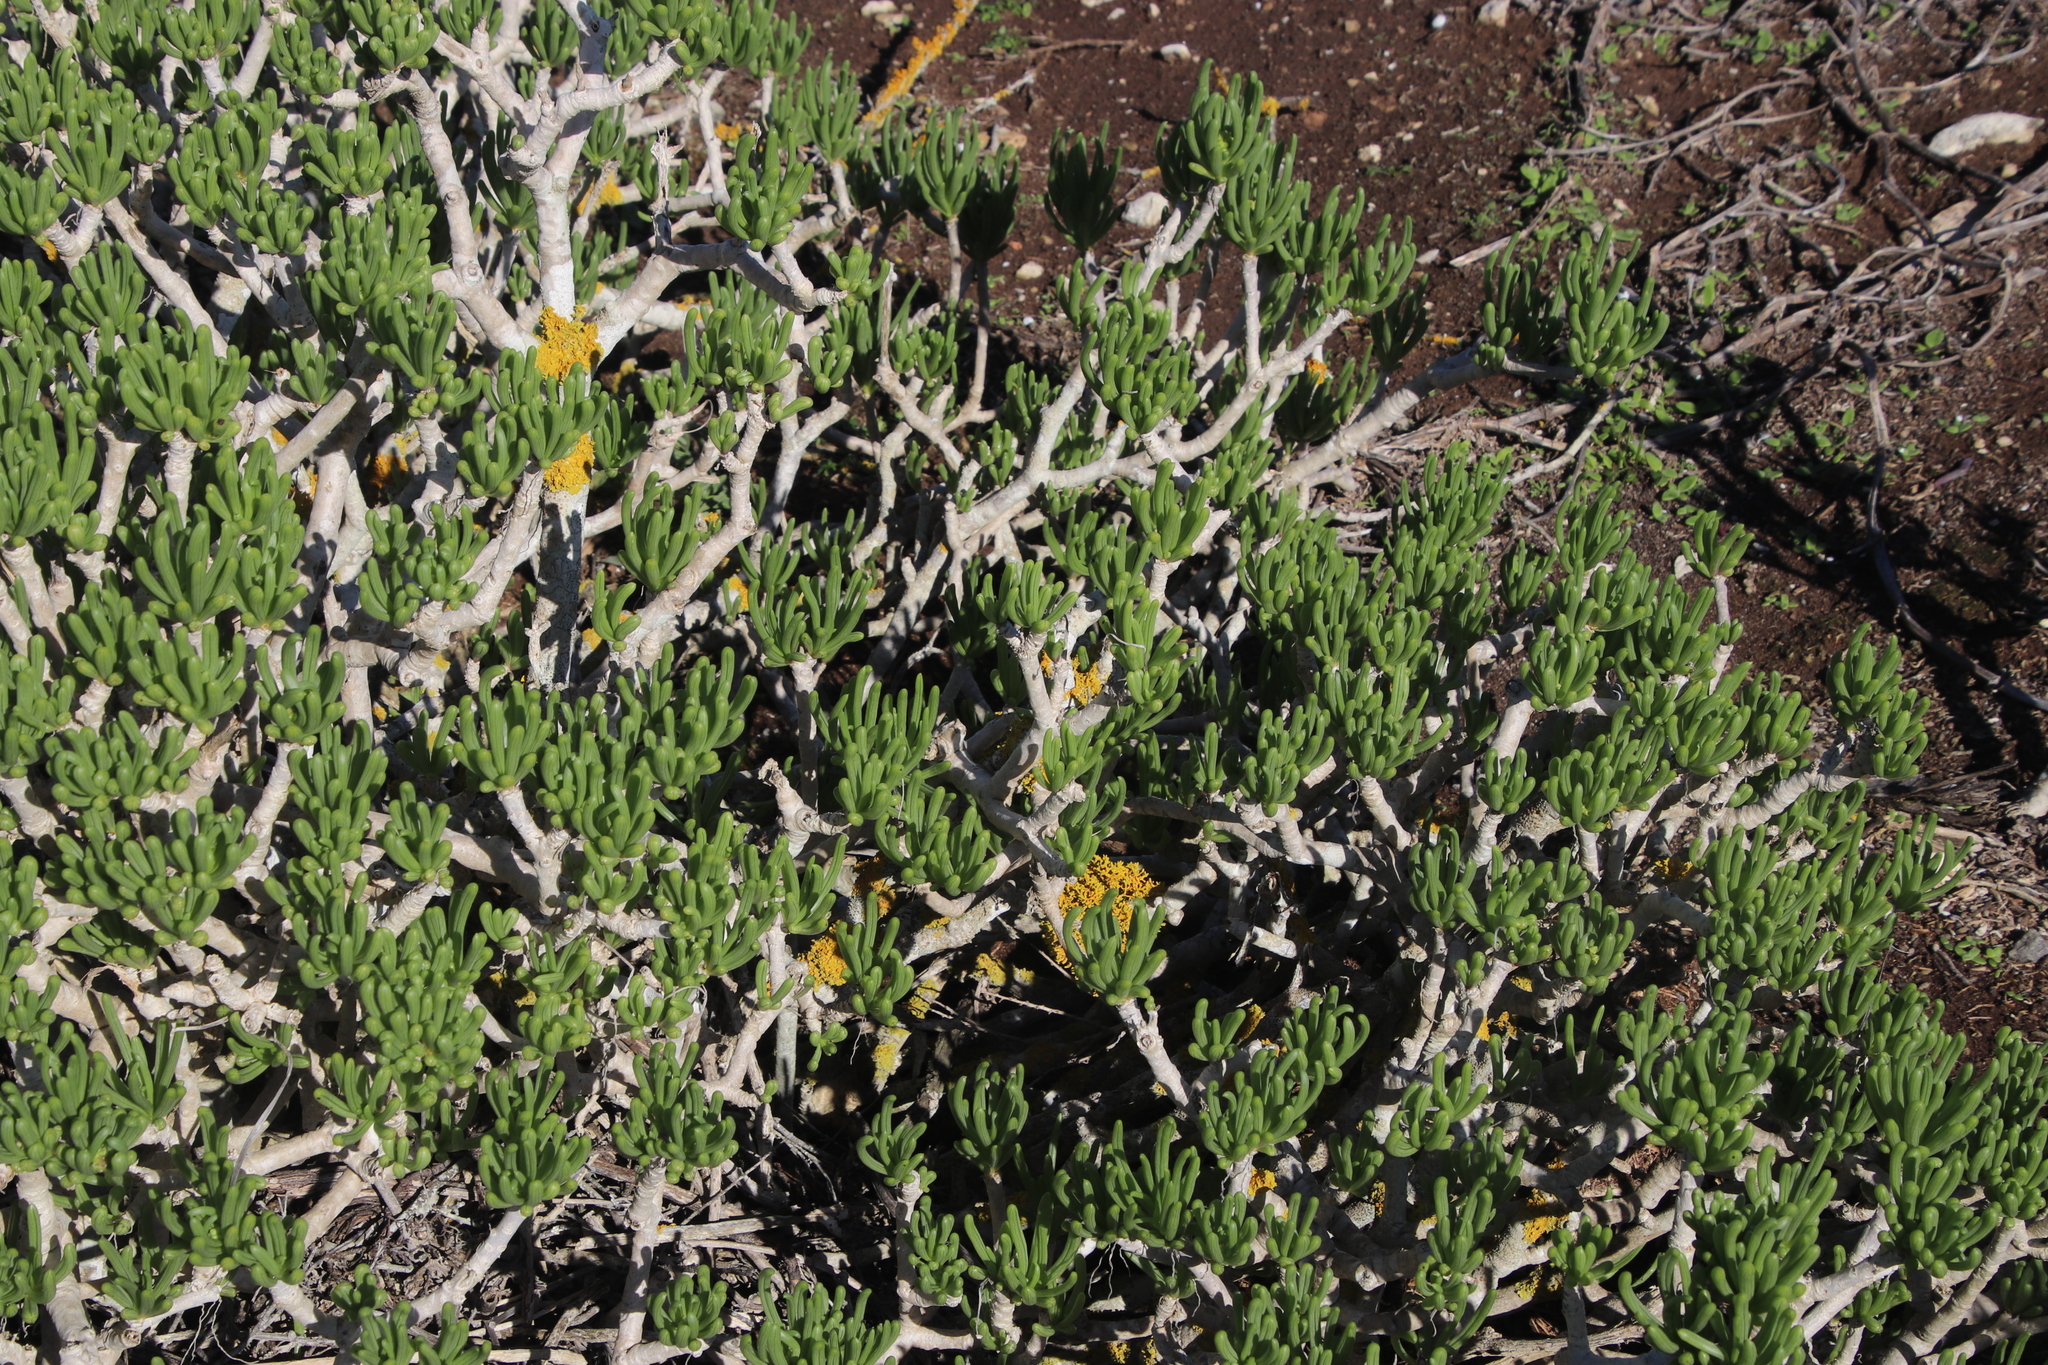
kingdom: Plantae
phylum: Tracheophyta
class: Magnoliopsida
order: Asterales
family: Asteraceae
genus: Curio
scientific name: Curio corymbifer
